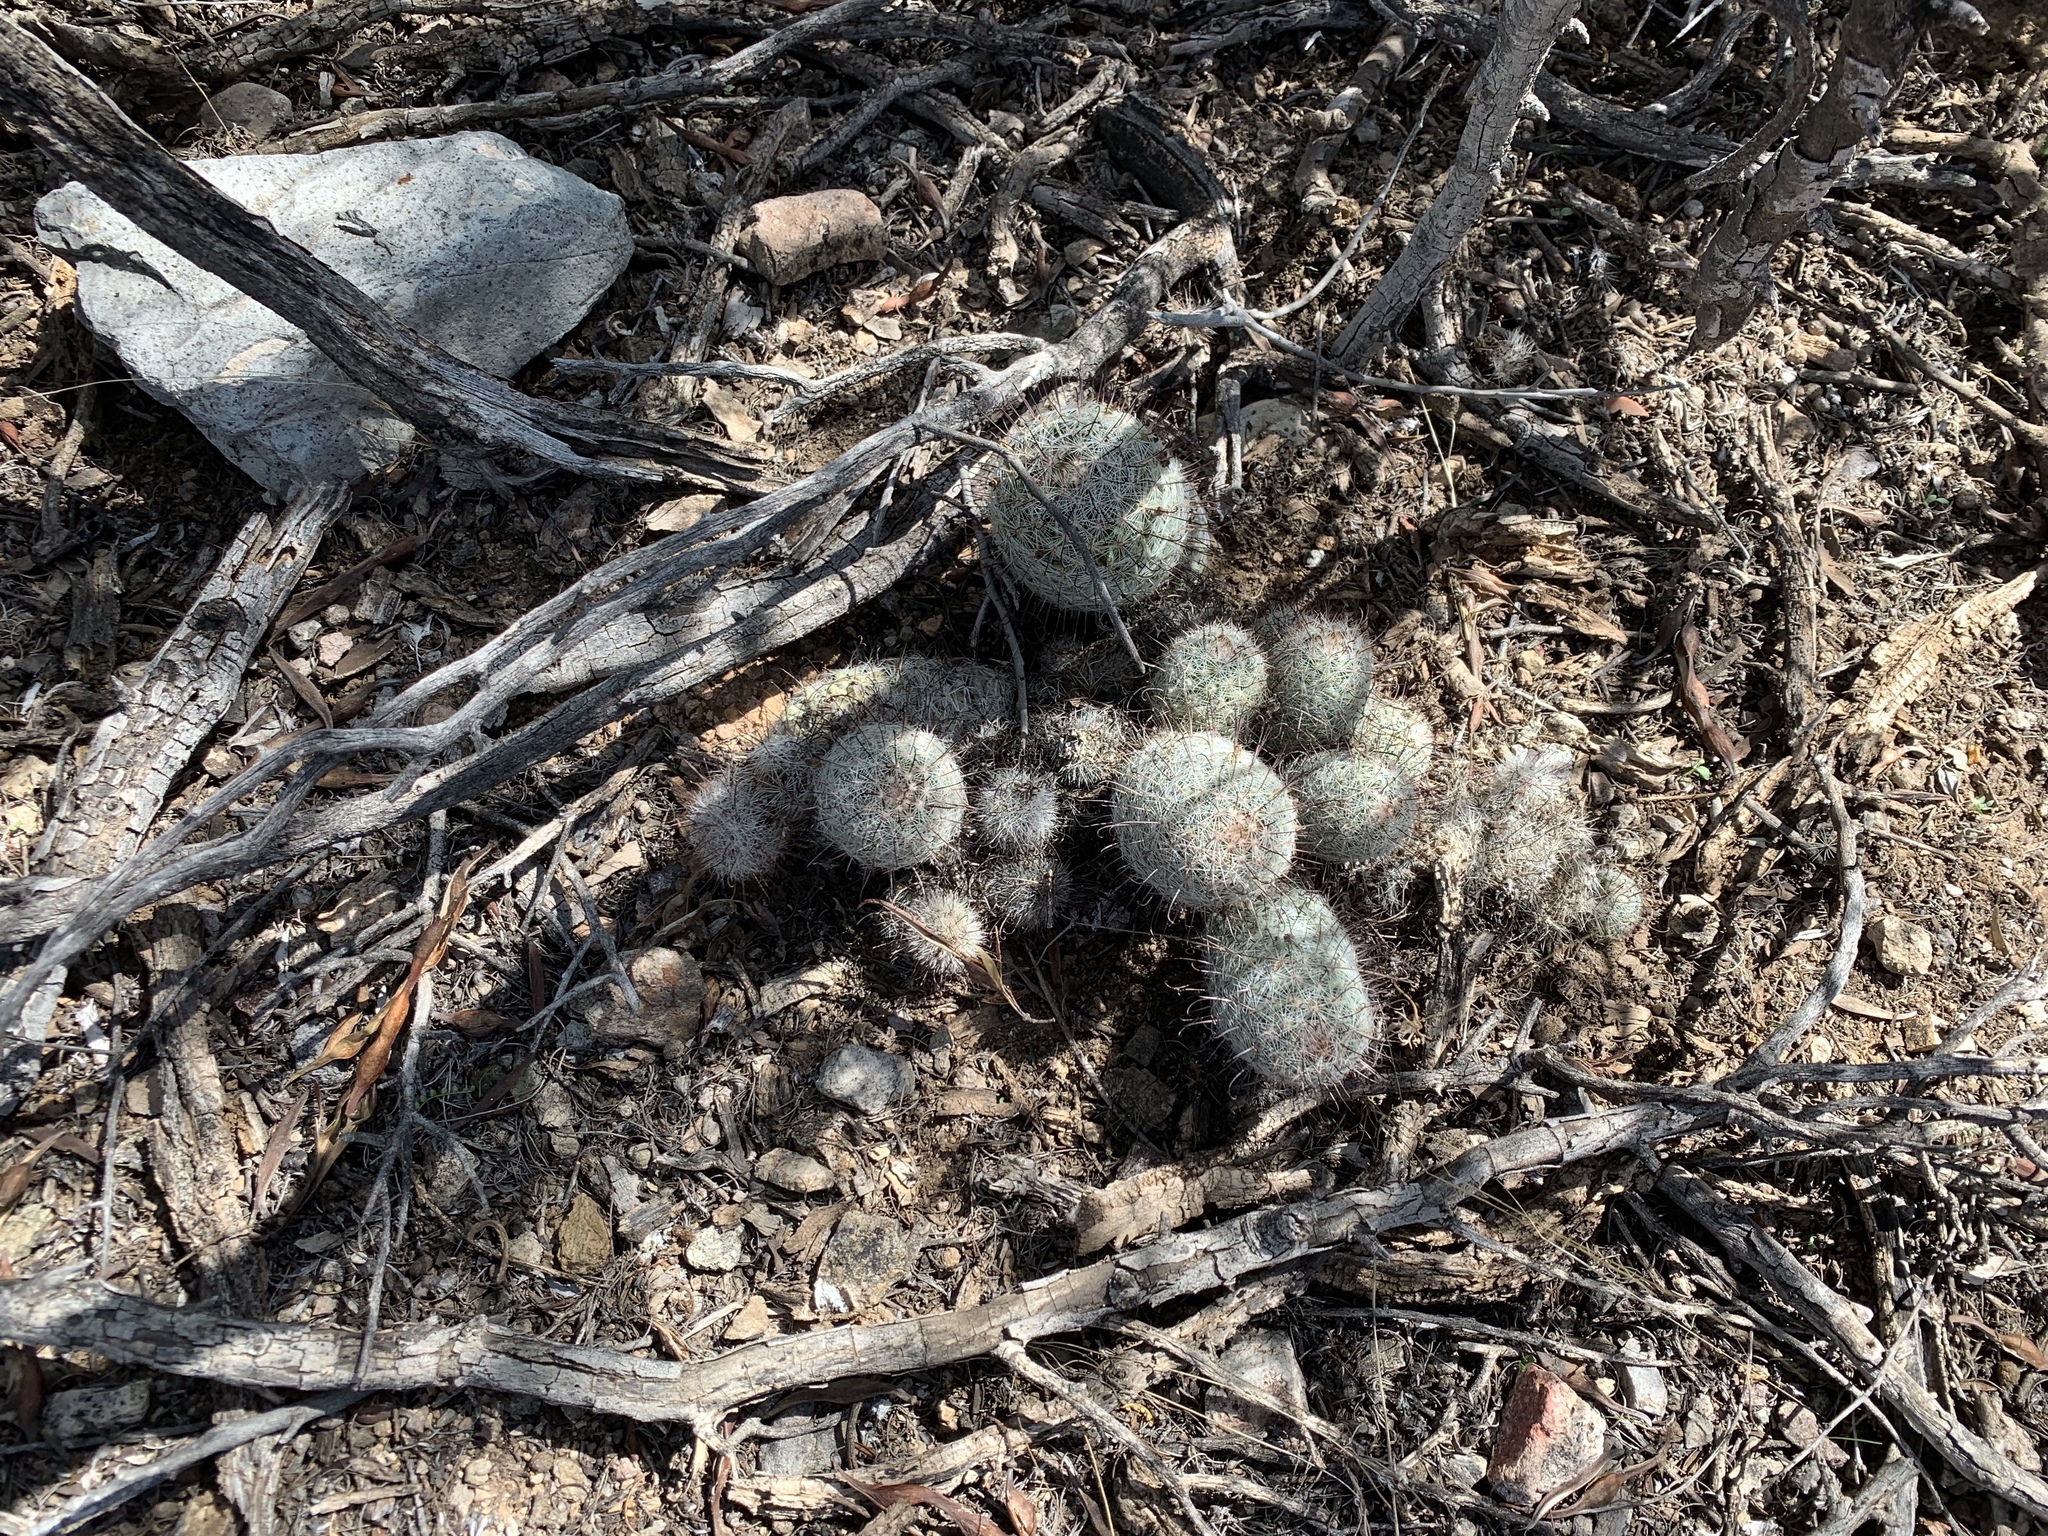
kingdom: Plantae
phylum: Tracheophyta
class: Magnoliopsida
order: Caryophyllales
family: Cactaceae
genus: Cochemiea
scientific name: Cochemiea grahamii
